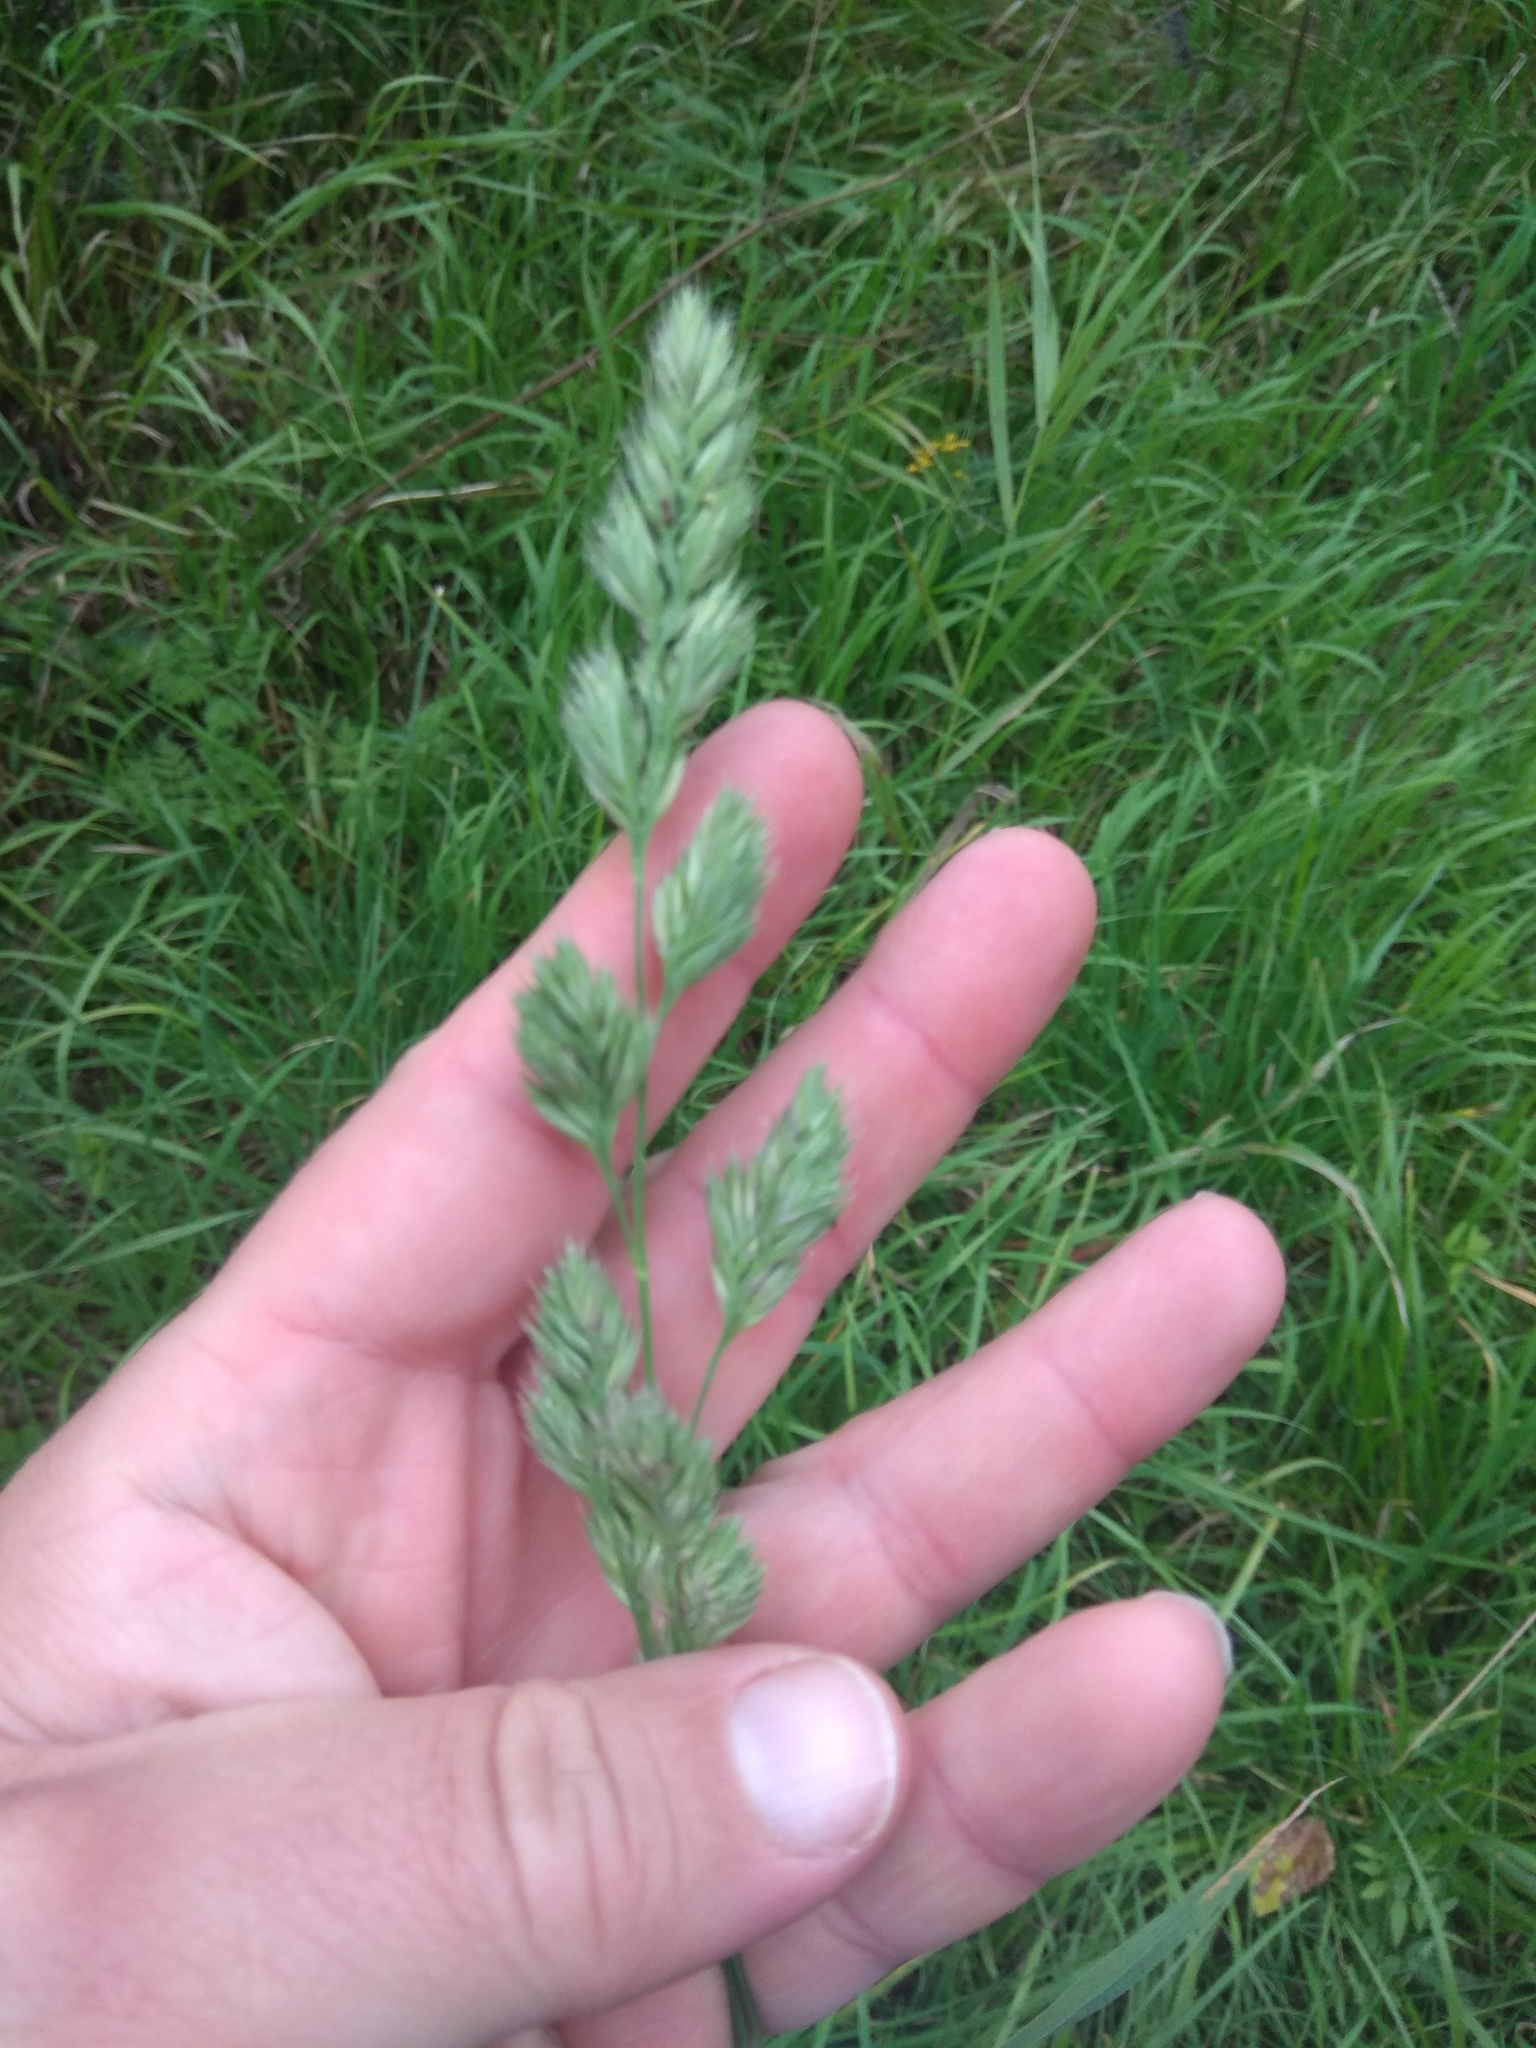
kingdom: Plantae
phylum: Tracheophyta
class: Liliopsida
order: Poales
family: Poaceae
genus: Dactylis
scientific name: Dactylis glomerata
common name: Orchardgrass
